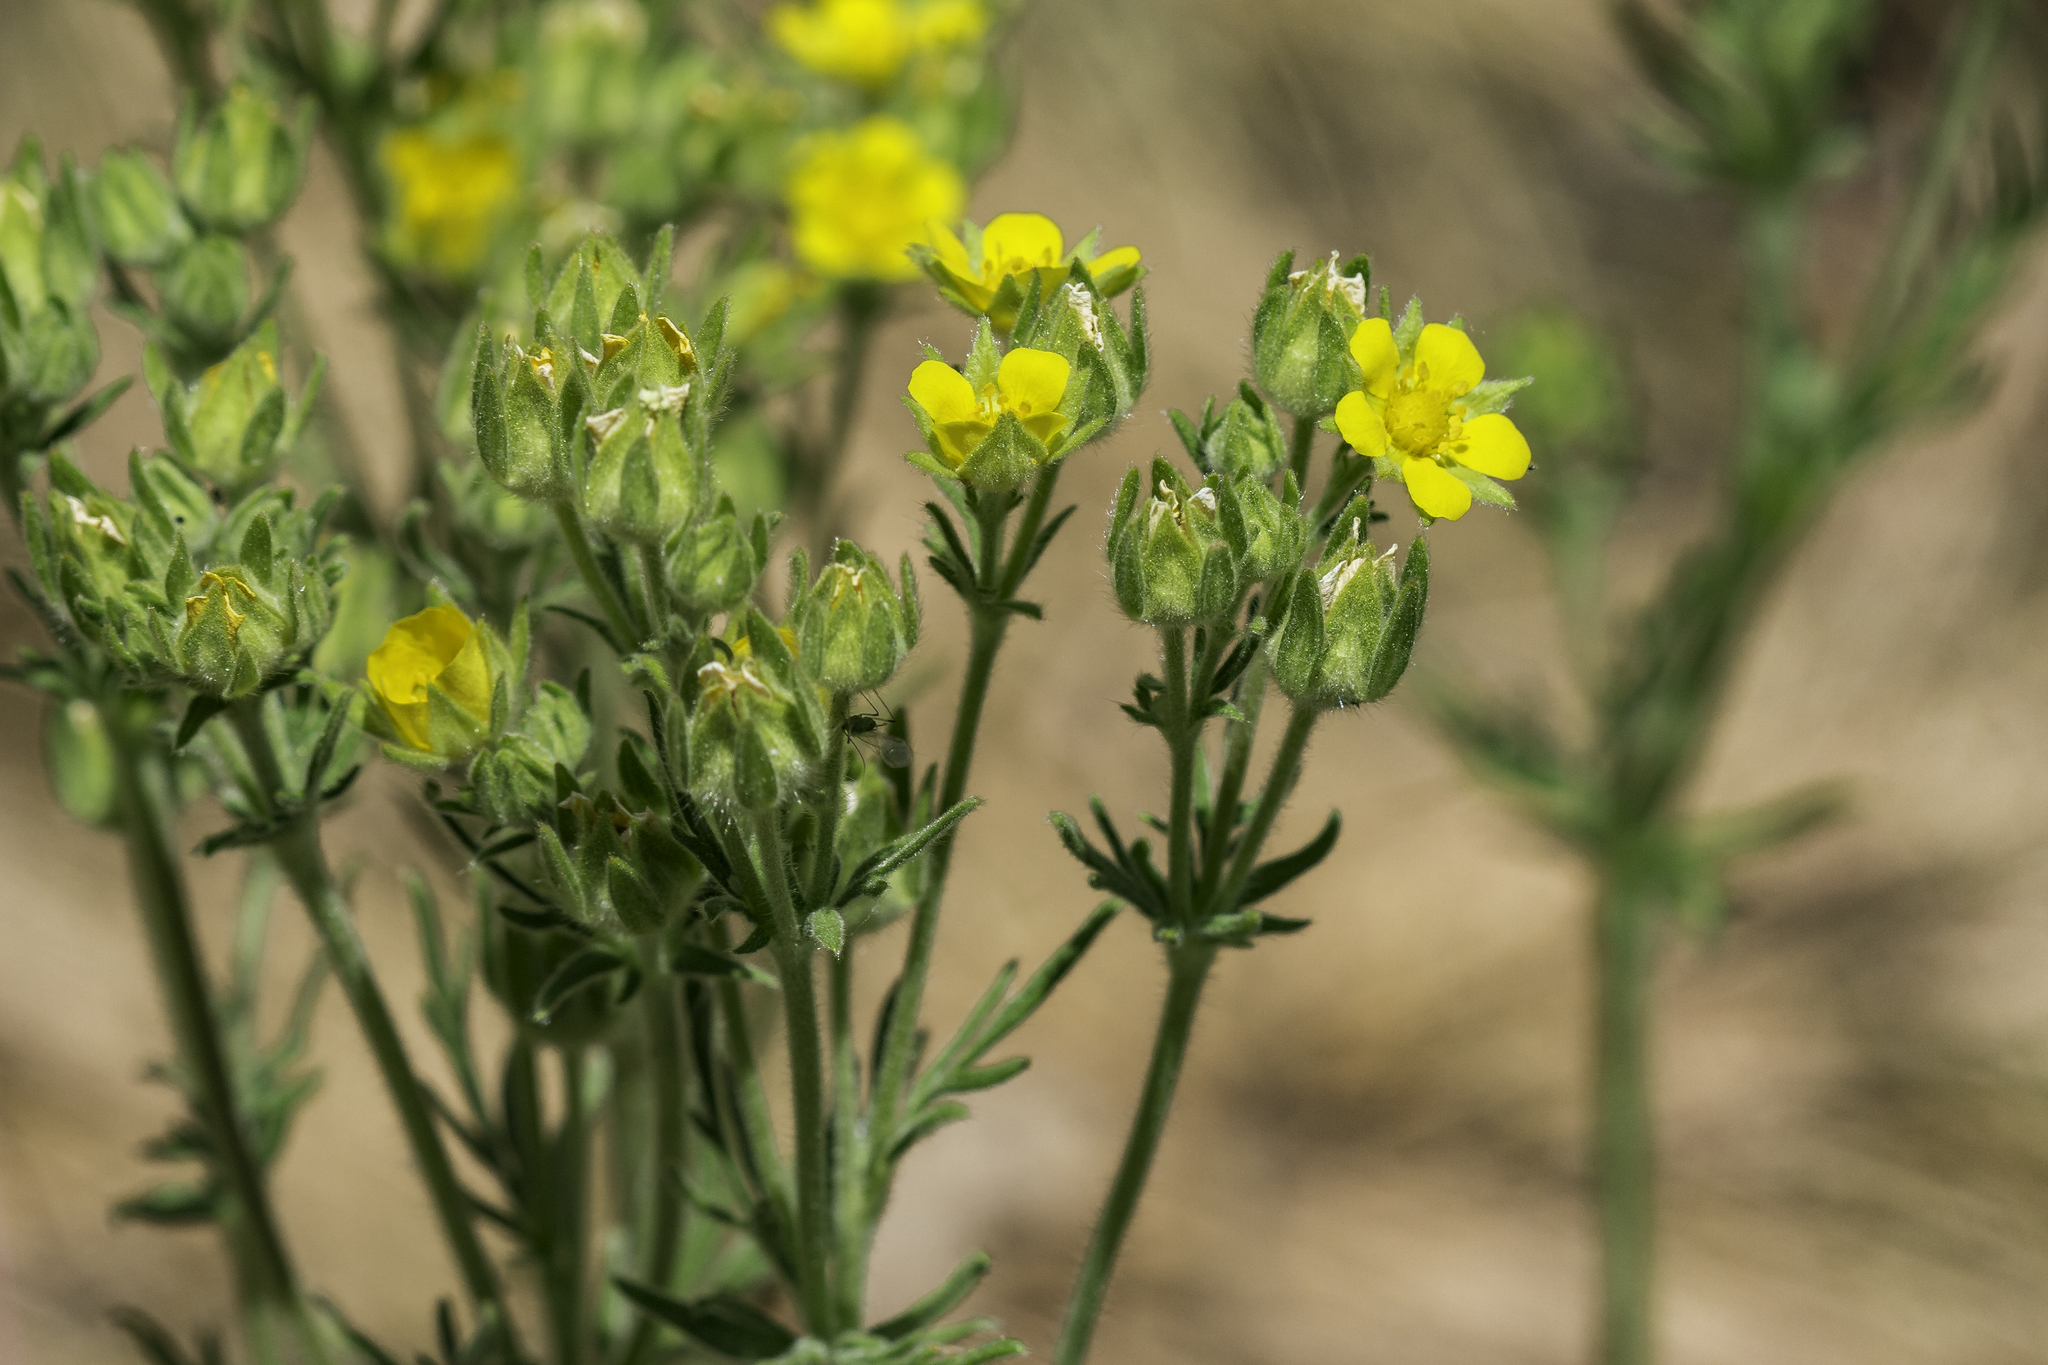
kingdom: Plantae
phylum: Tracheophyta
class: Magnoliopsida
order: Rosales
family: Rosaceae
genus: Potentilla
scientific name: Potentilla pensylvanica
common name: Pennsylvania cinquefoil
